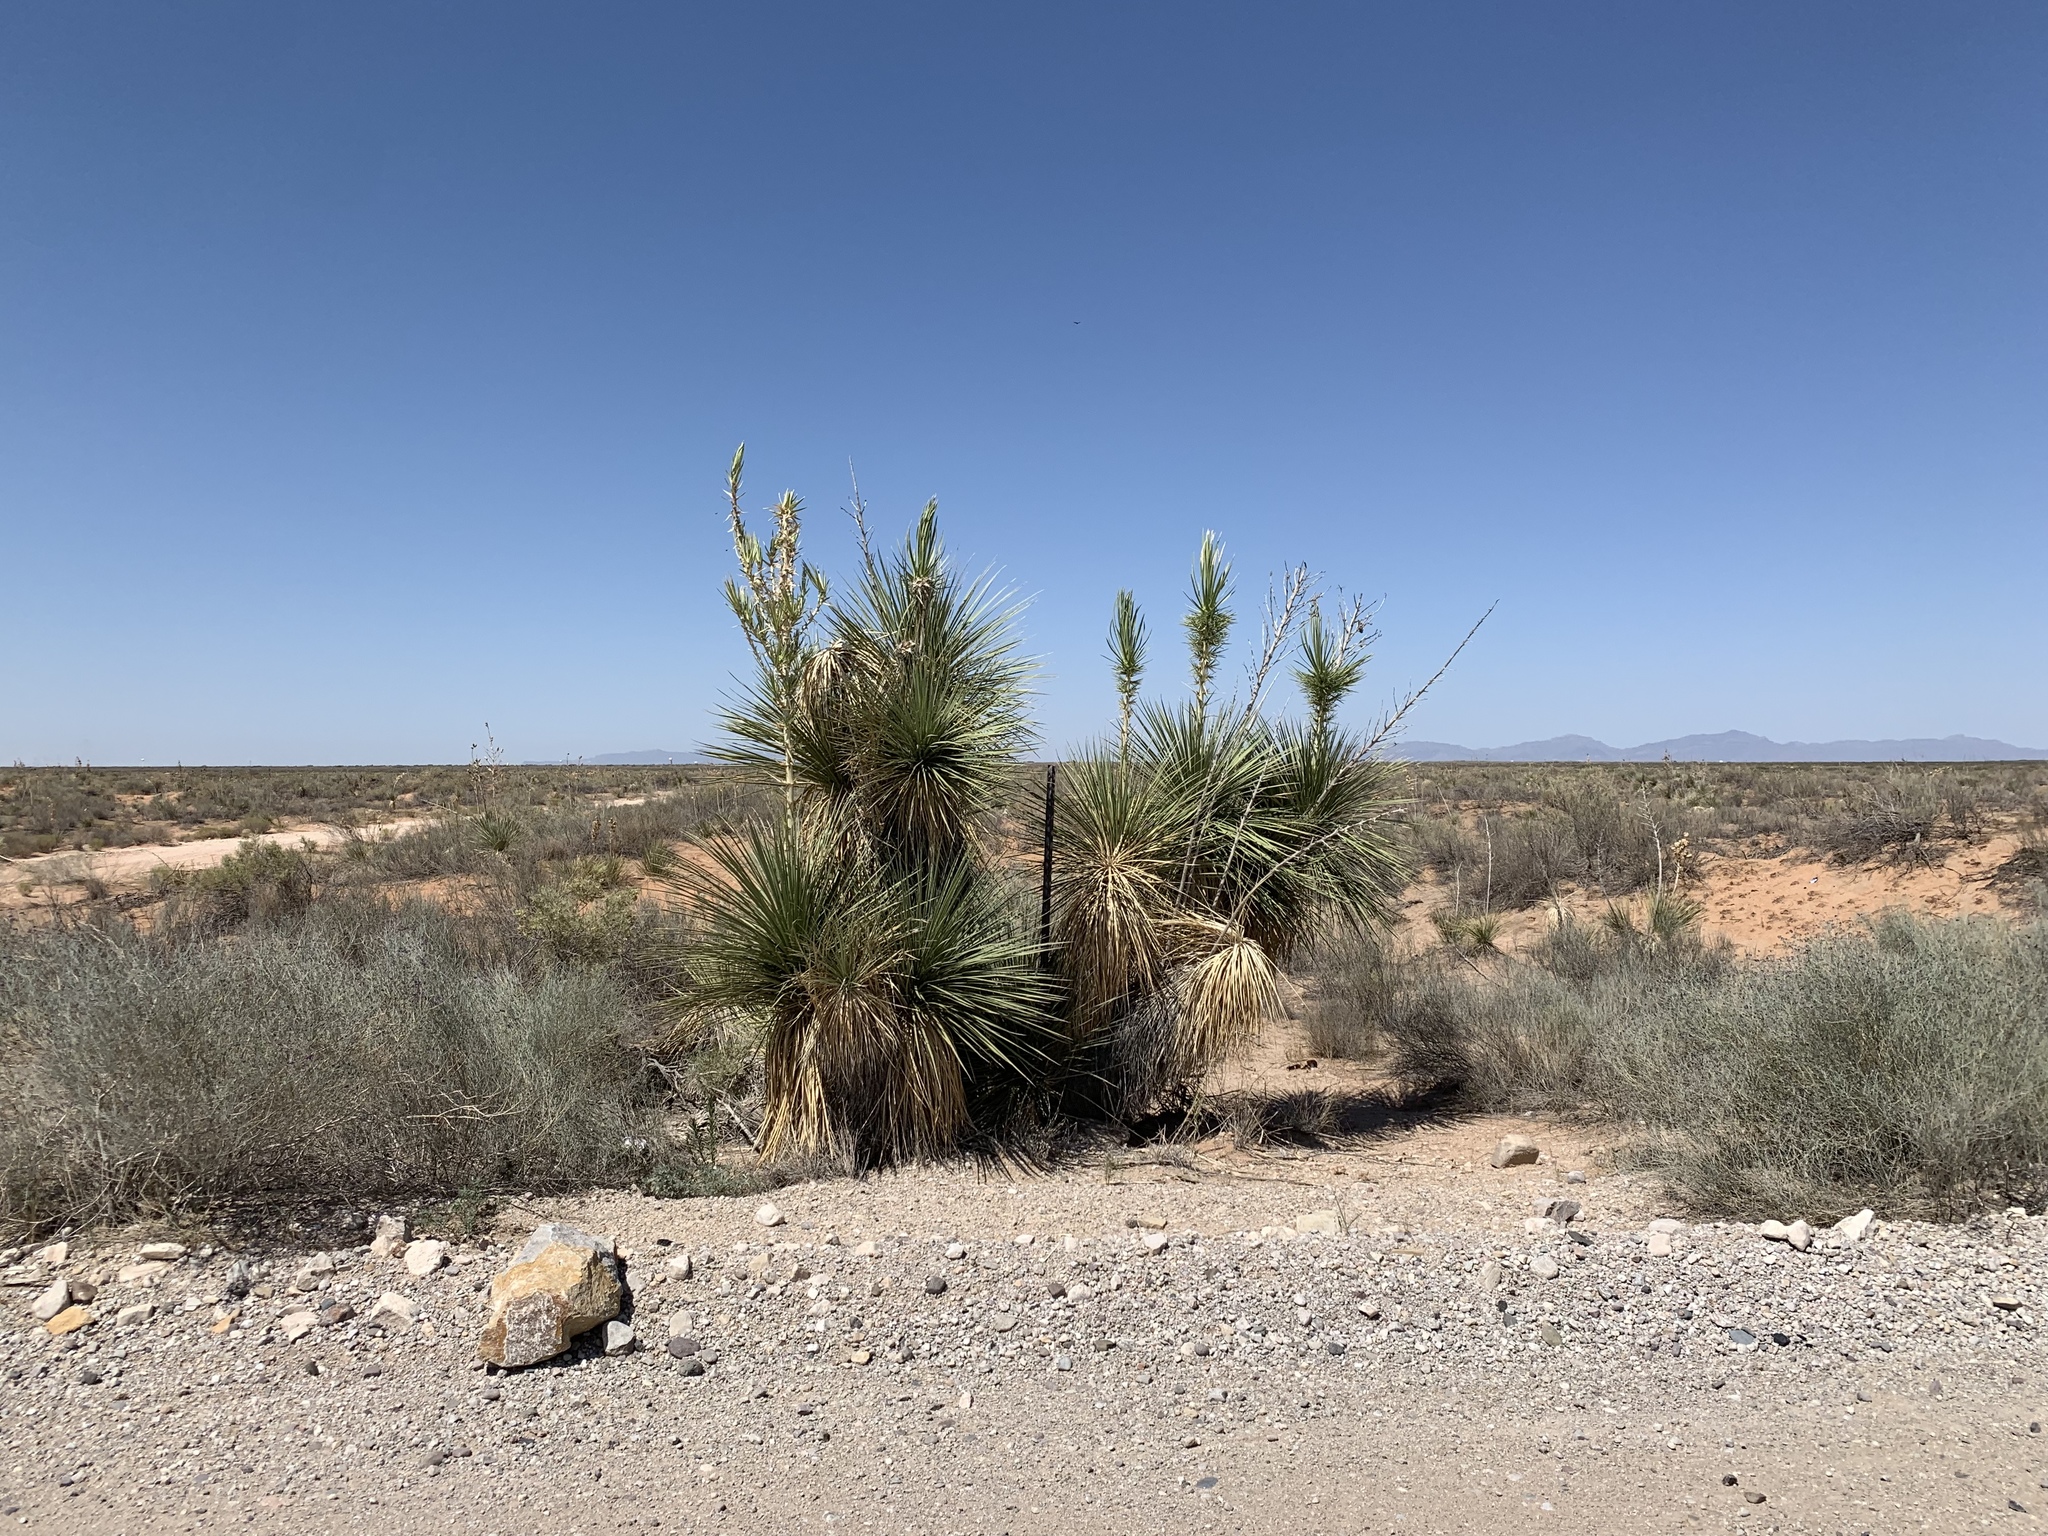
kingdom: Plantae
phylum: Tracheophyta
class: Liliopsida
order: Asparagales
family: Asparagaceae
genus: Yucca
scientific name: Yucca elata
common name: Palmella
